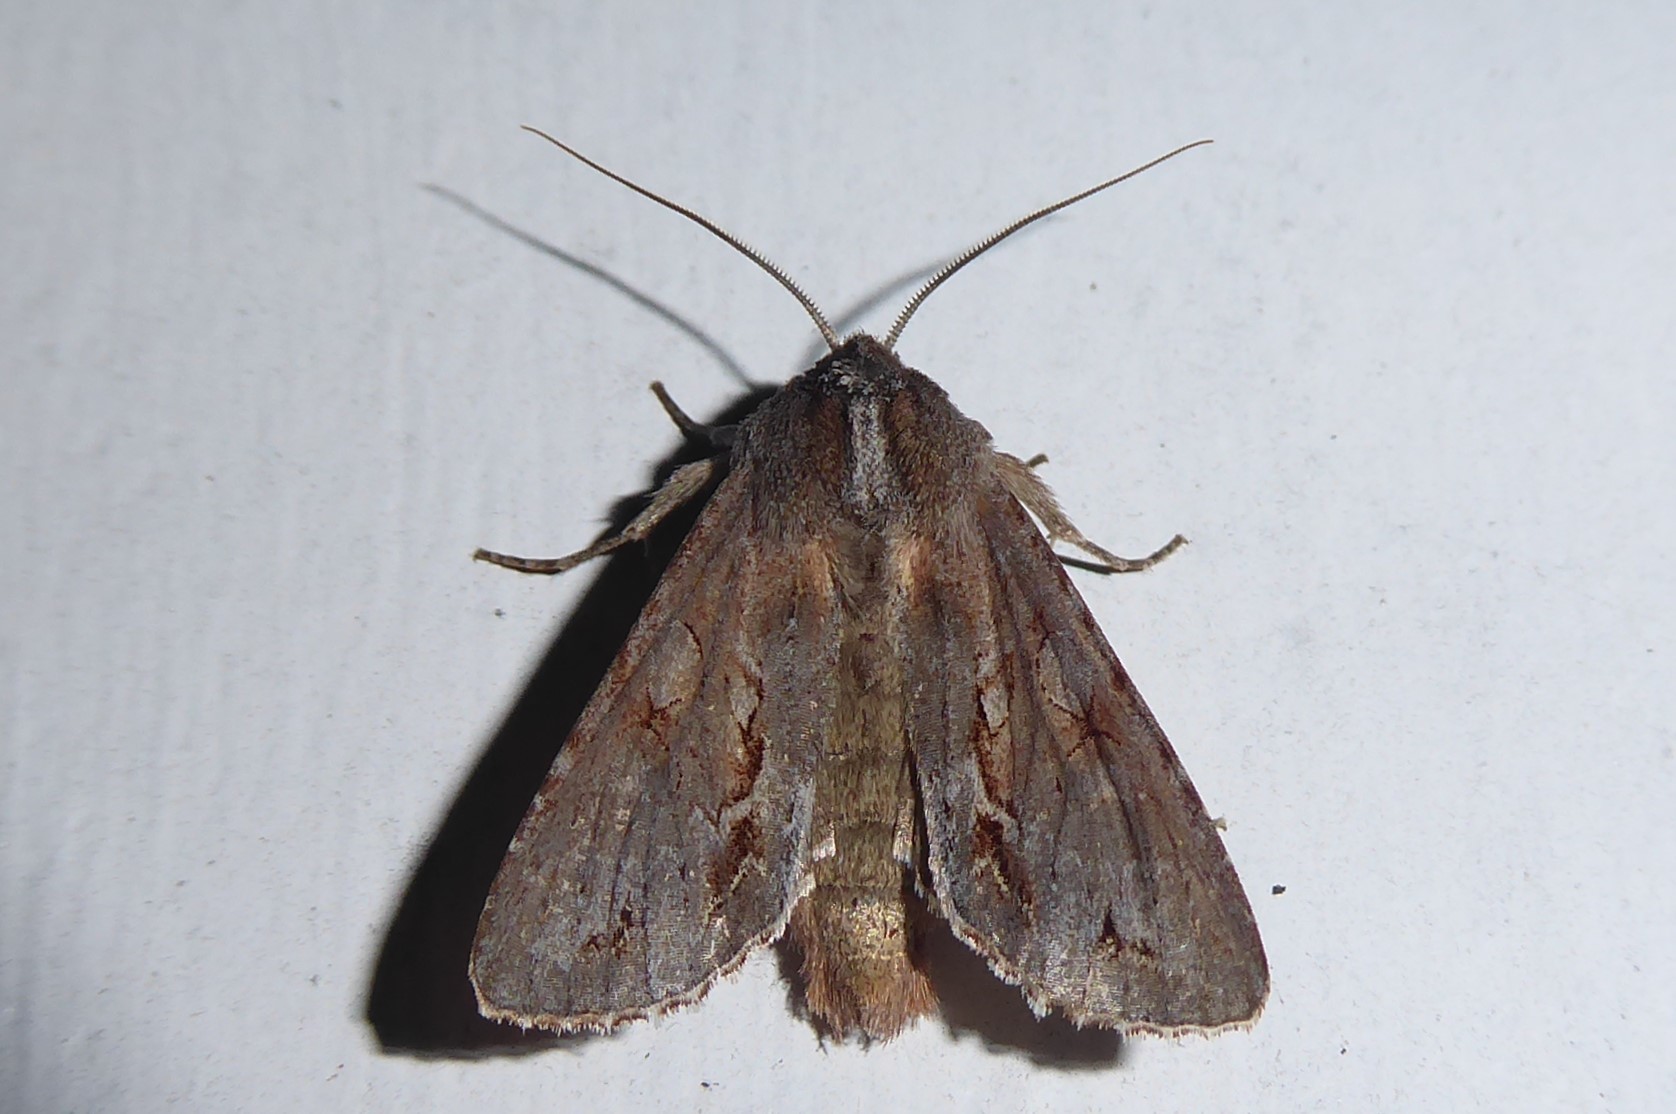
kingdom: Animalia
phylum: Arthropoda
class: Insecta
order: Lepidoptera
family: Noctuidae
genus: Ichneutica
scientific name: Ichneutica
